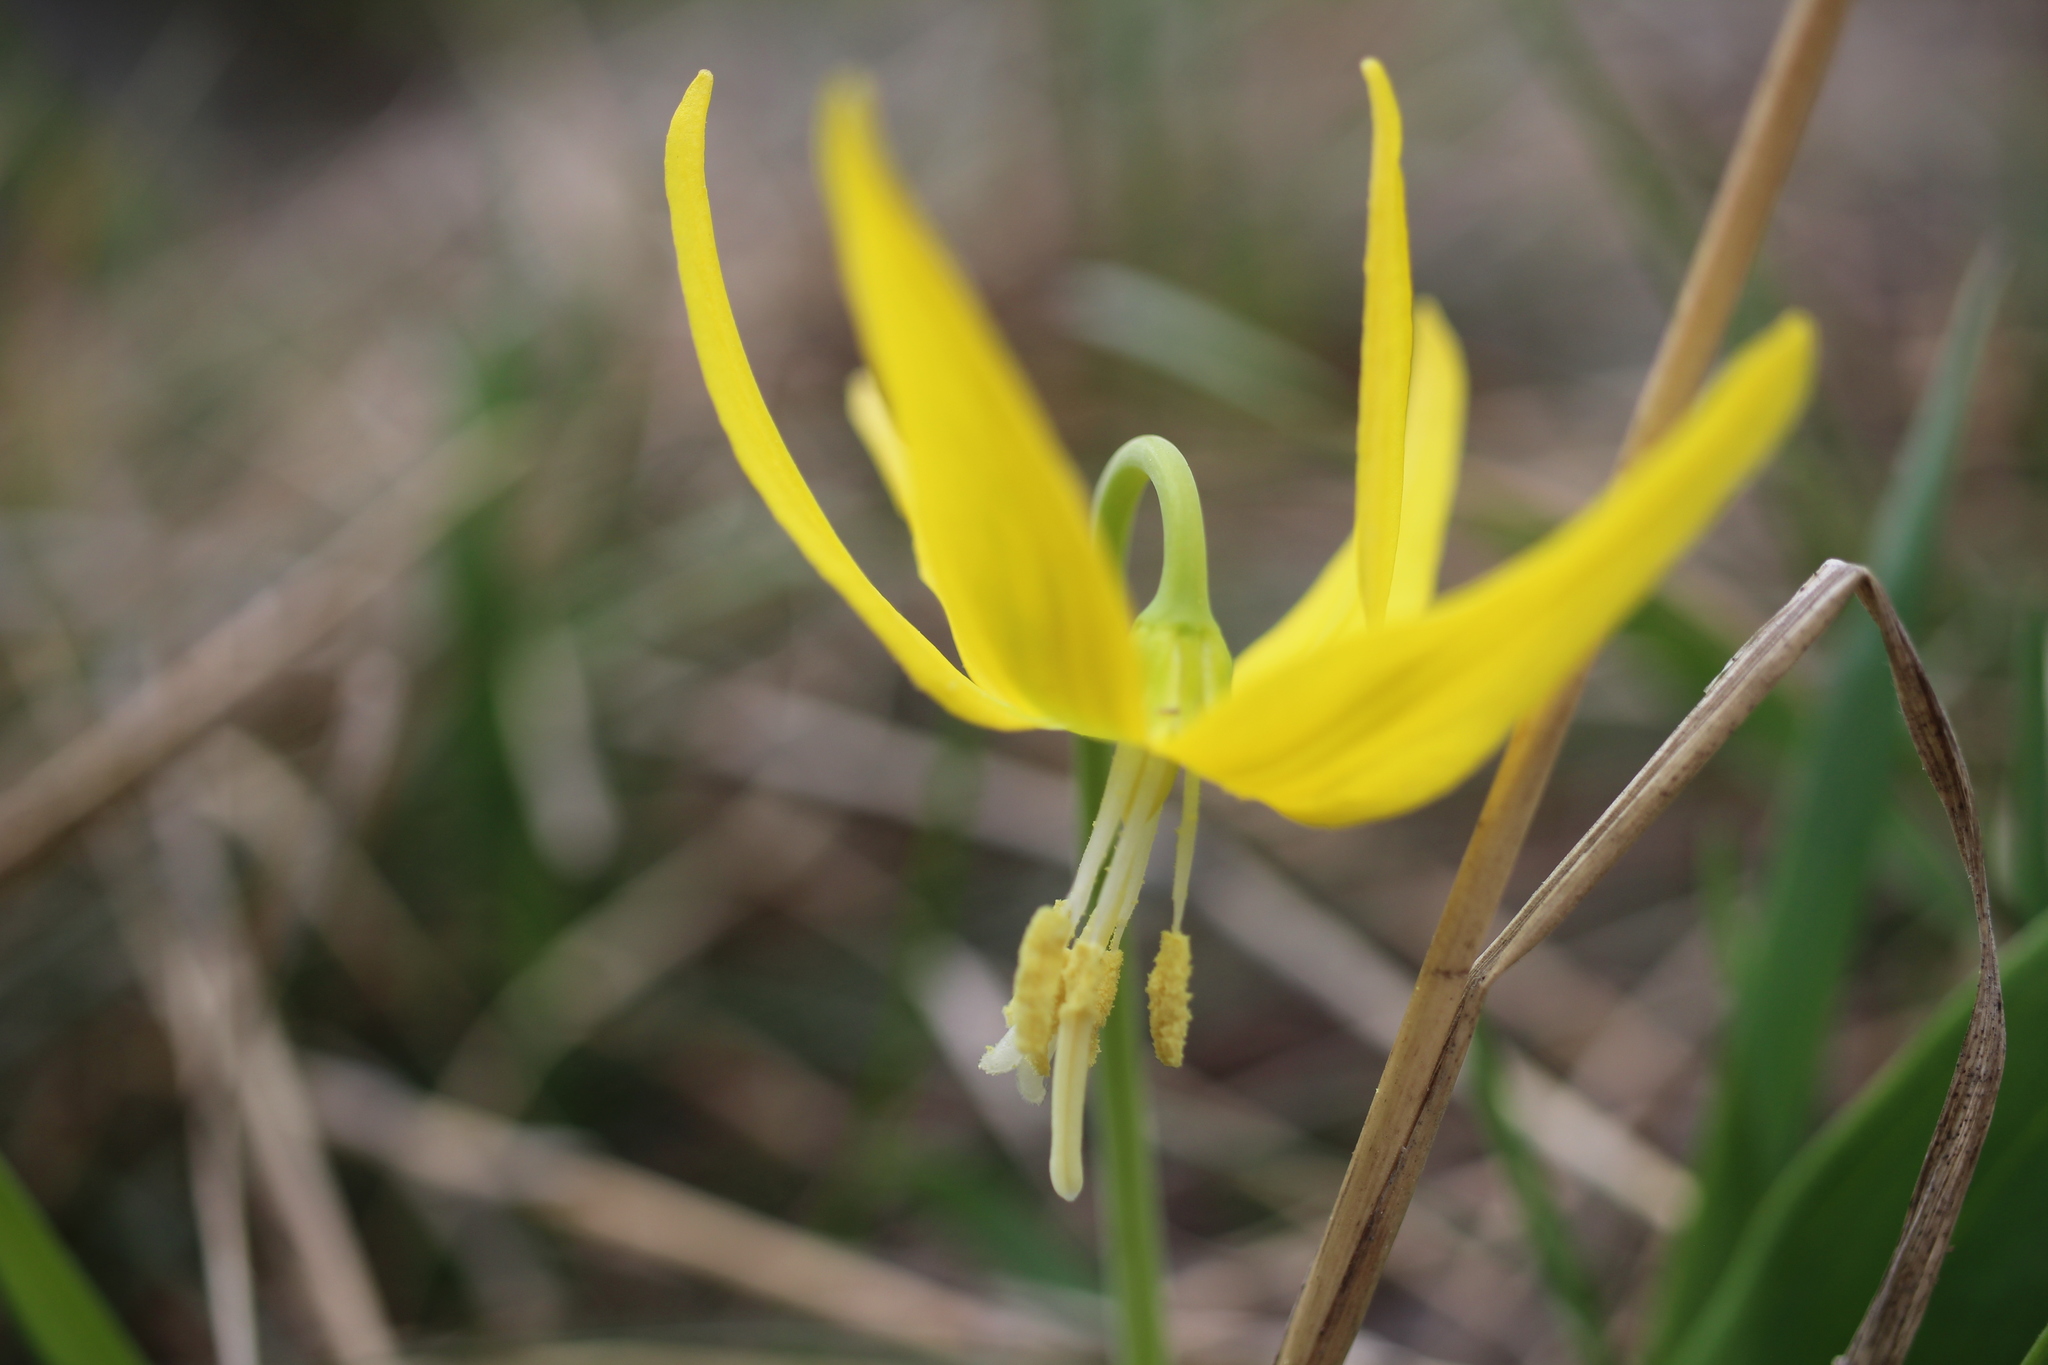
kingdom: Plantae
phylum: Tracheophyta
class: Liliopsida
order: Liliales
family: Liliaceae
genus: Erythronium
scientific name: Erythronium grandiflorum
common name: Avalanche-lily
